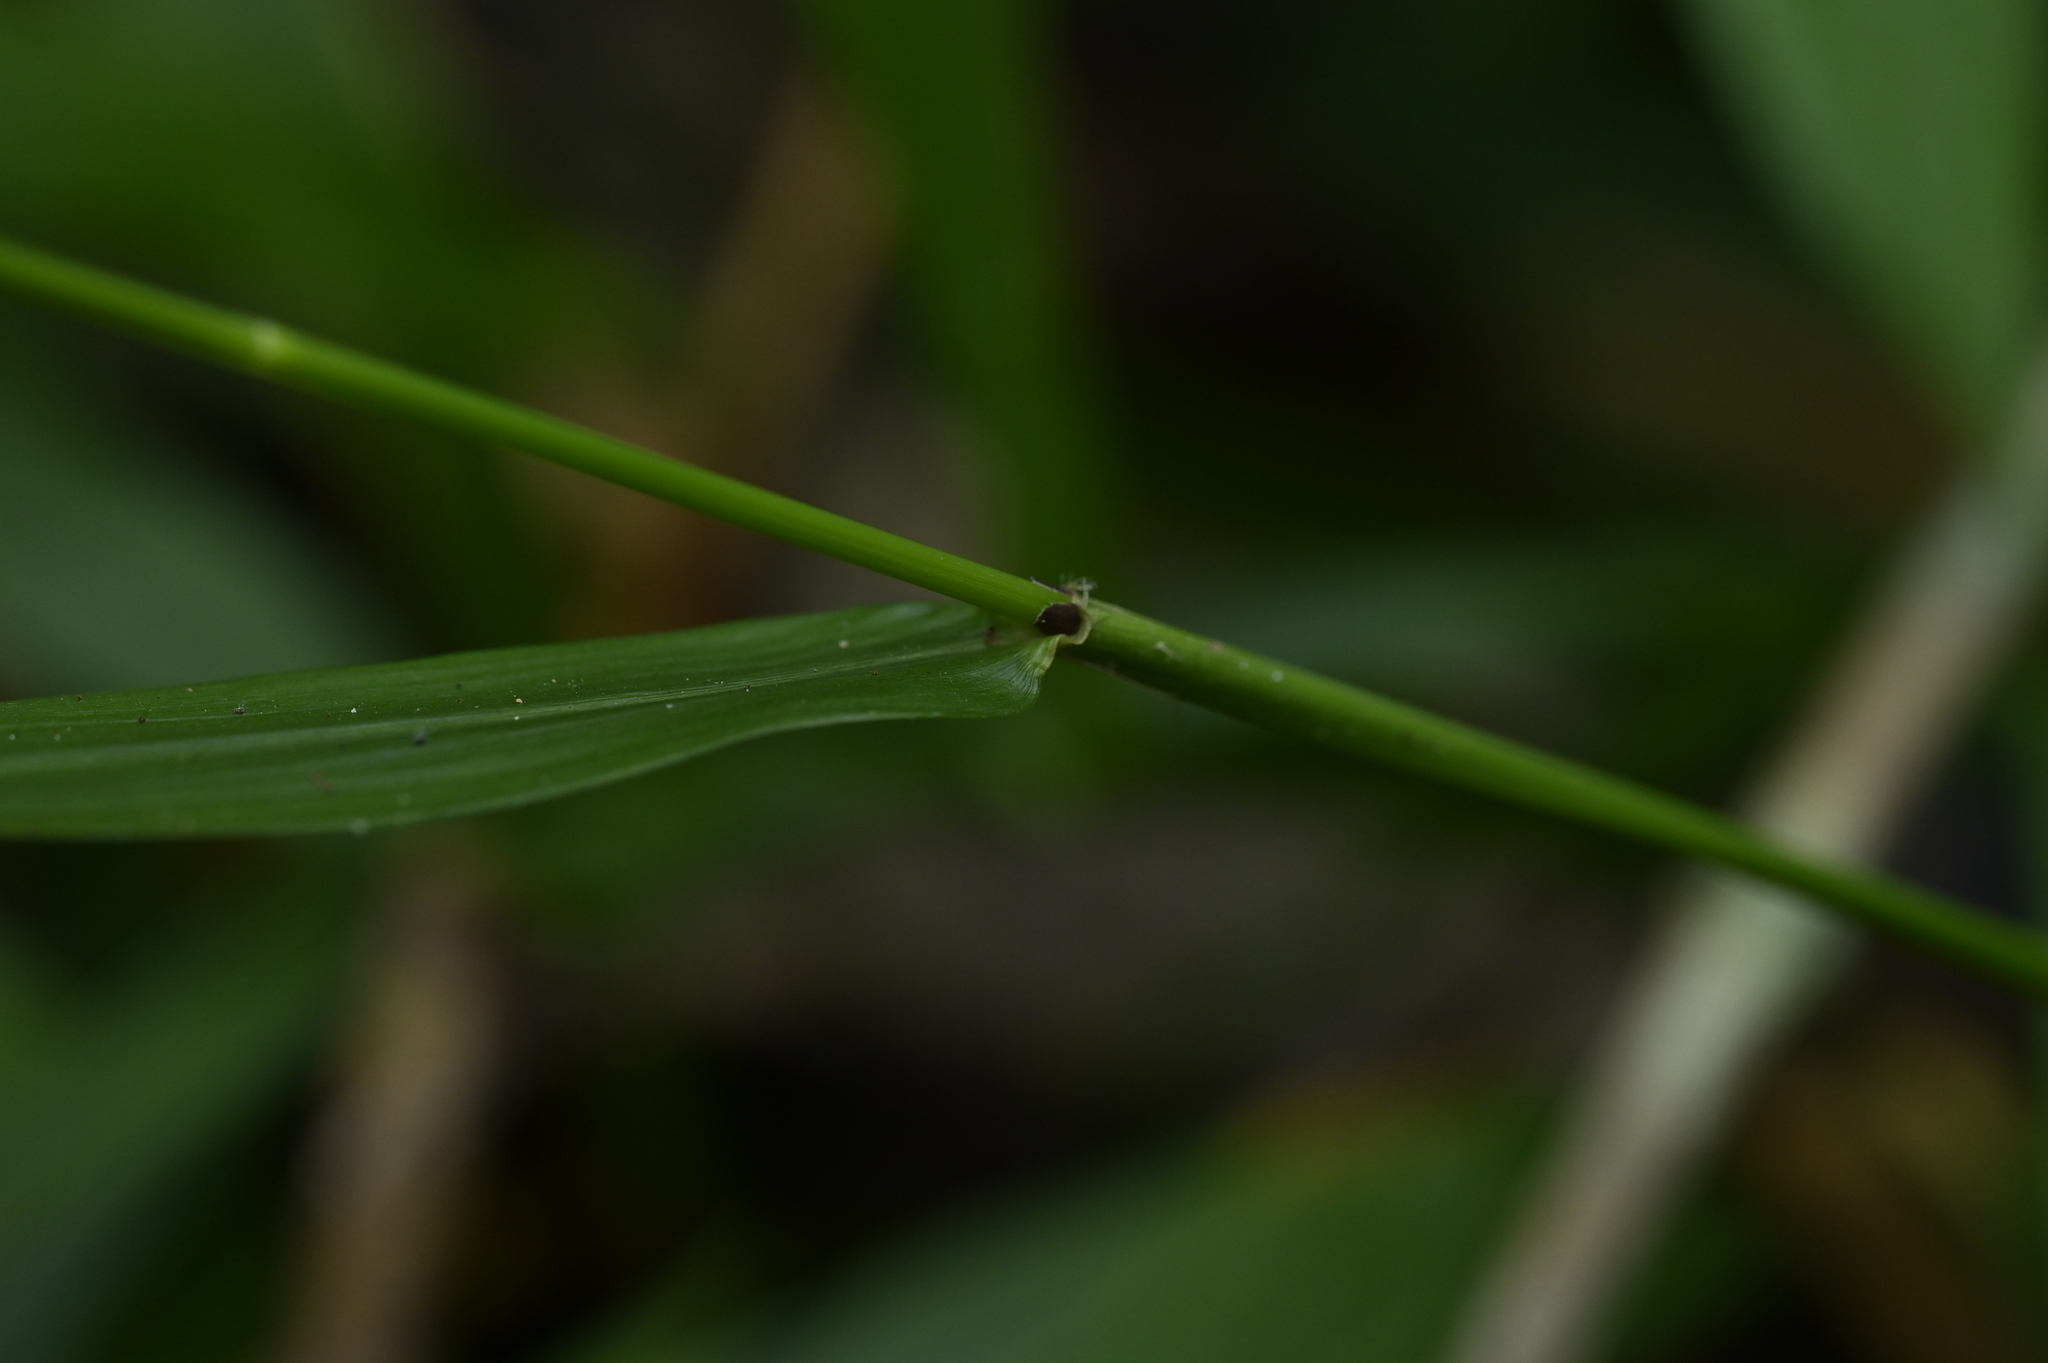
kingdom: Plantae
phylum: Tracheophyta
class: Liliopsida
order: Poales
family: Poaceae
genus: Chikusichloa
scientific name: Chikusichloa mutica
